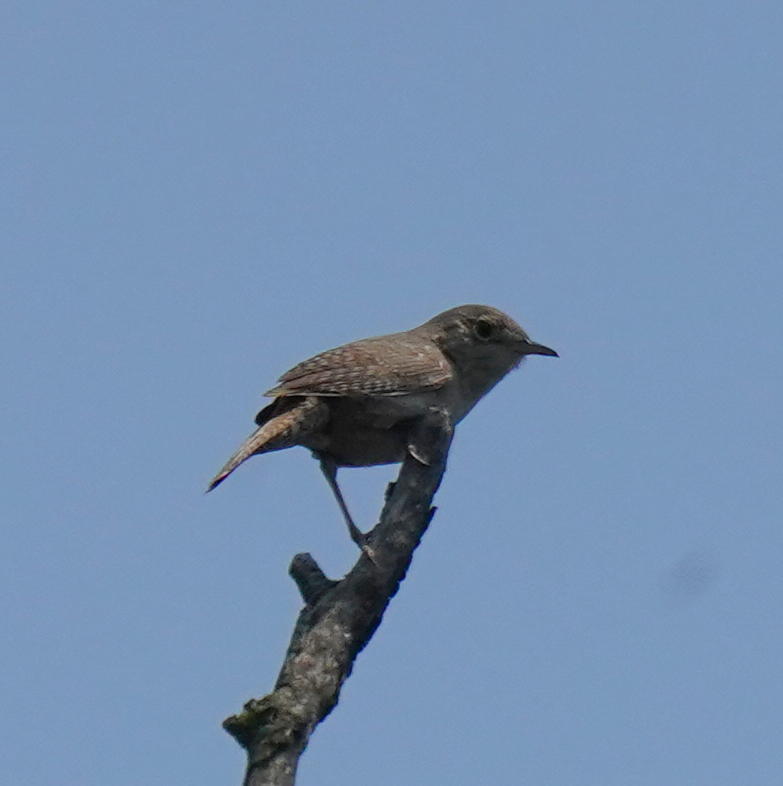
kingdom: Animalia
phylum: Chordata
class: Aves
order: Passeriformes
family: Troglodytidae
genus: Troglodytes
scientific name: Troglodytes aedon
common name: House wren
